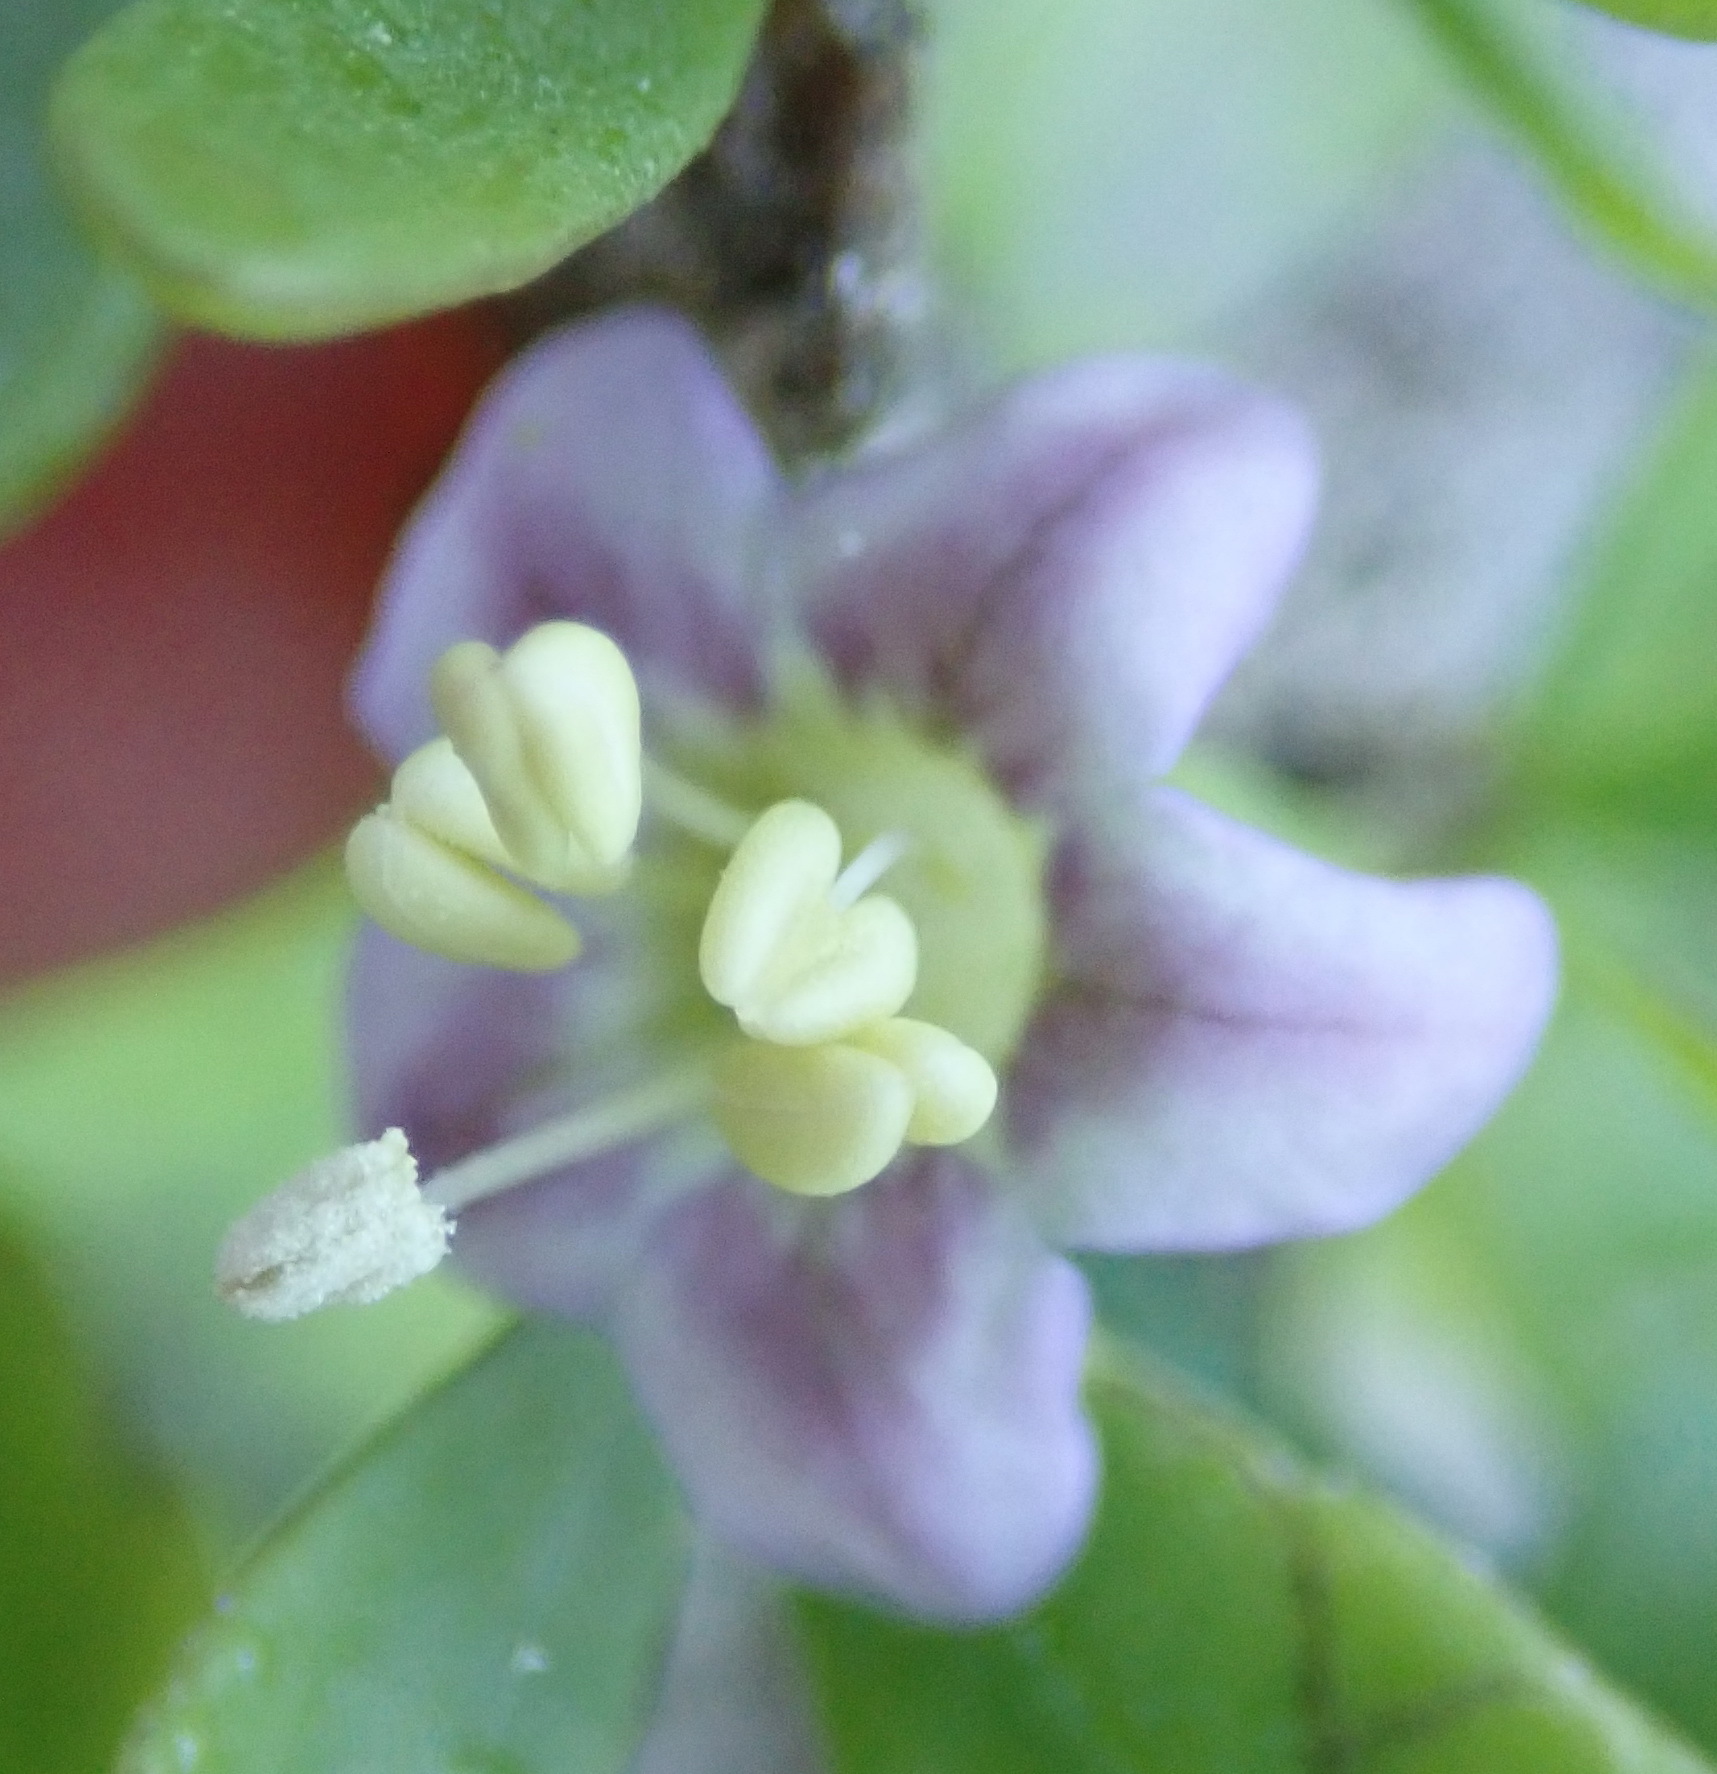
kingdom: Plantae
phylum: Tracheophyta
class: Magnoliopsida
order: Solanales
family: Solanaceae
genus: Lycium
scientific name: Lycium ferocissimum
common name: African boxthorn
